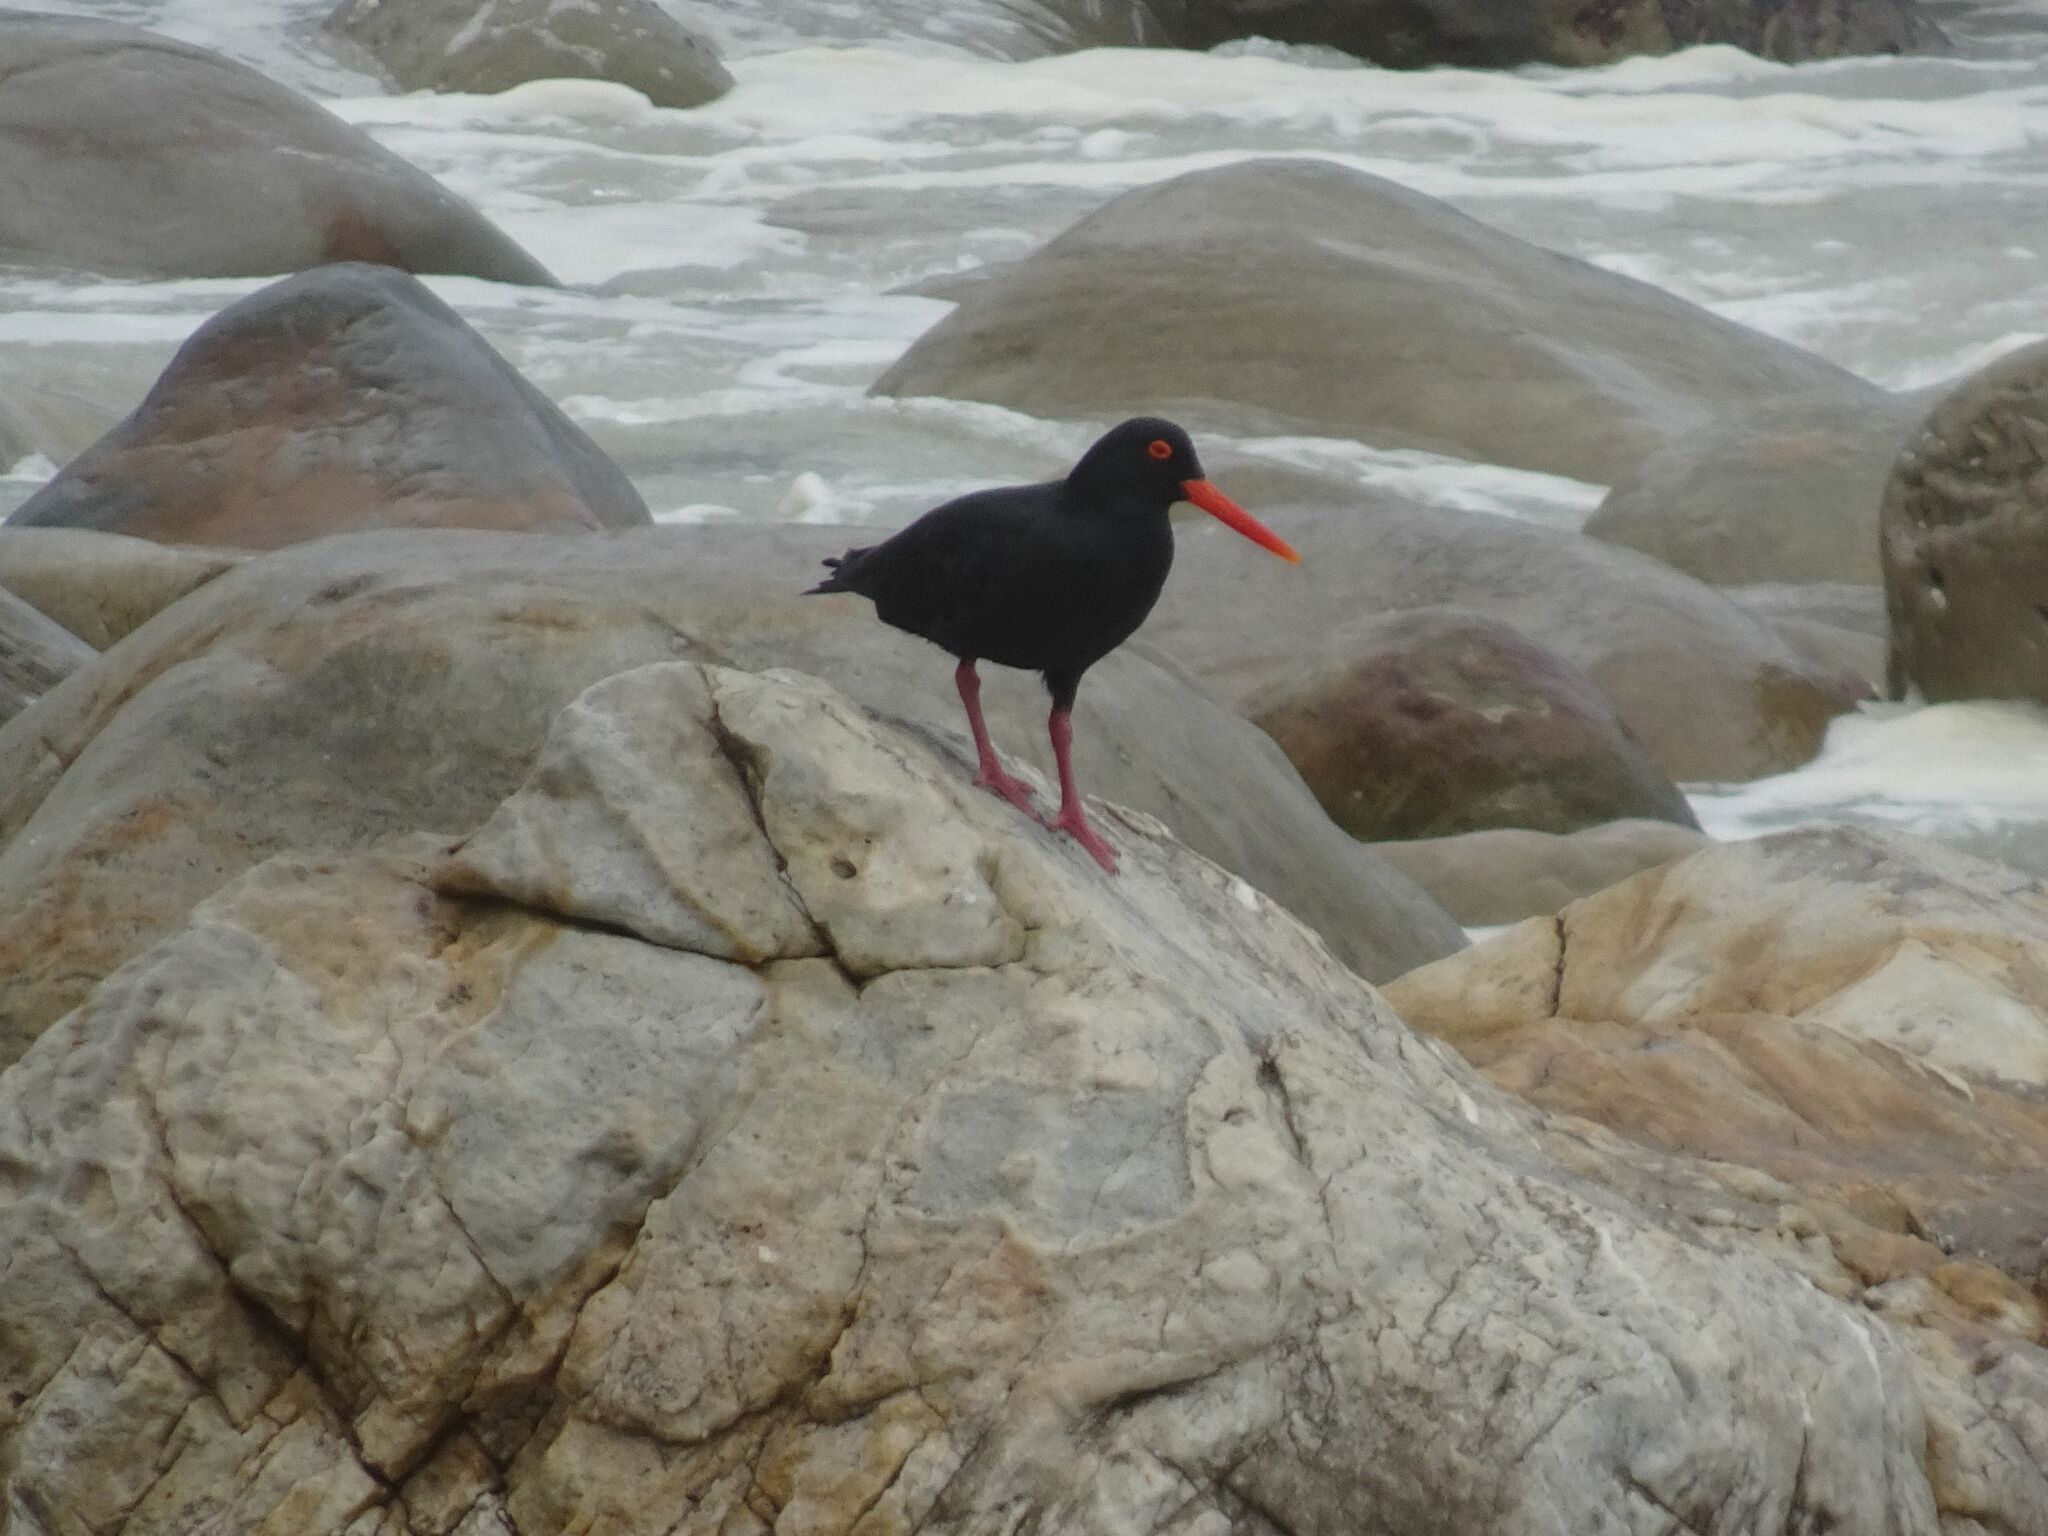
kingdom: Animalia
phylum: Chordata
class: Aves
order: Charadriiformes
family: Haematopodidae
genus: Haematopus
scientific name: Haematopus moquini
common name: African oystercatcher
